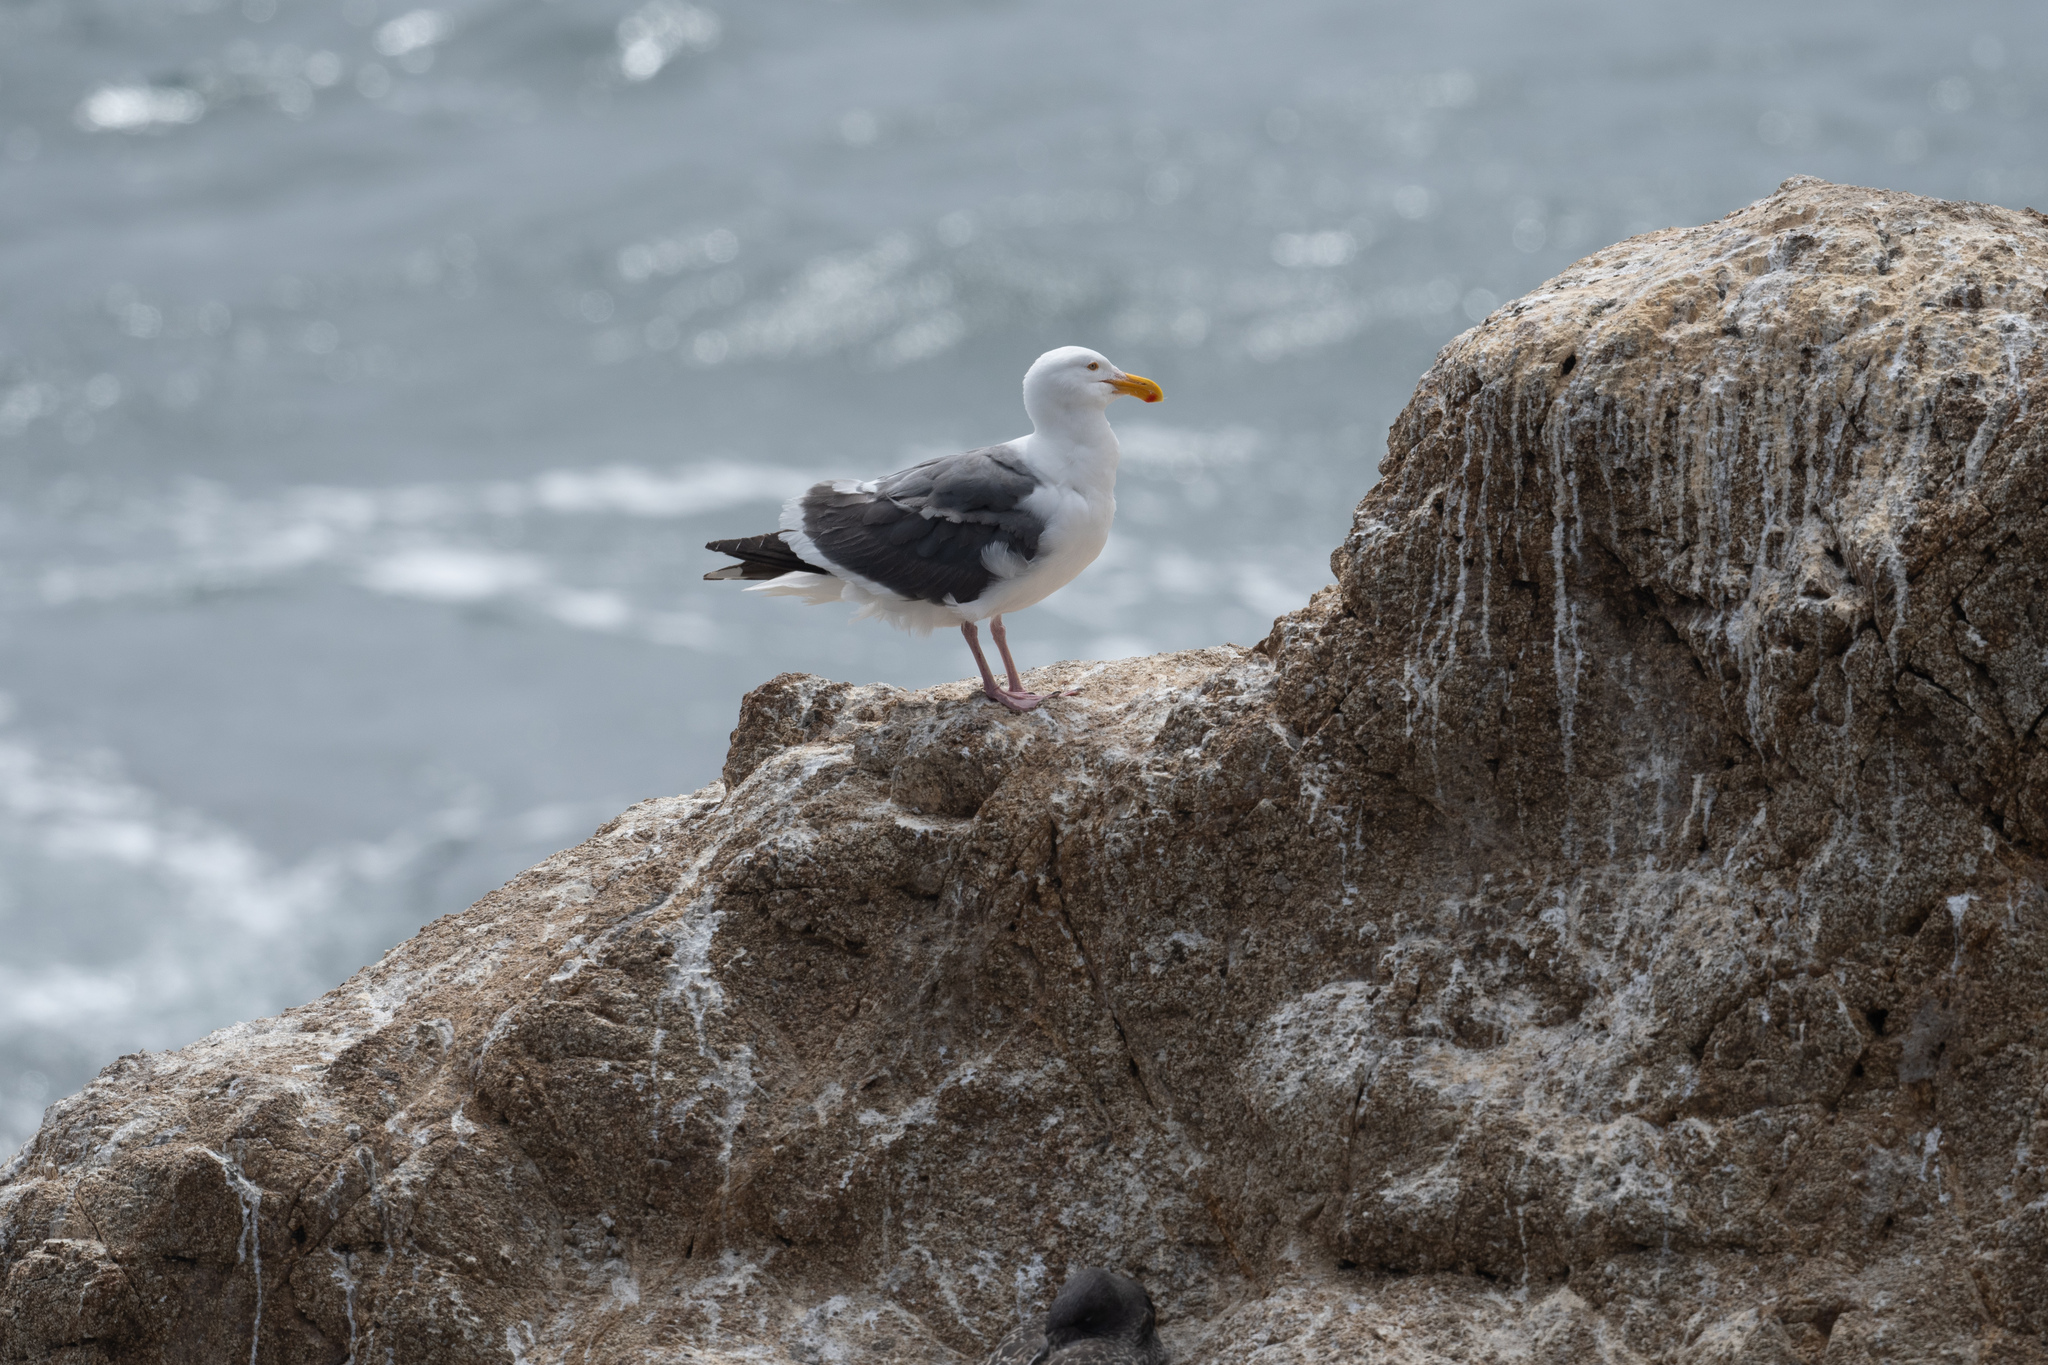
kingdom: Animalia
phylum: Chordata
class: Aves
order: Charadriiformes
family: Laridae
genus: Larus
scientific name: Larus occidentalis
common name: Western gull
